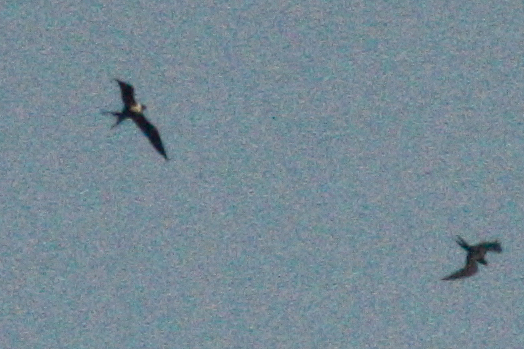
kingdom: Animalia
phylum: Chordata
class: Aves
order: Suliformes
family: Fregatidae
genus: Fregata
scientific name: Fregata ariel
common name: Lesser frigatebird
